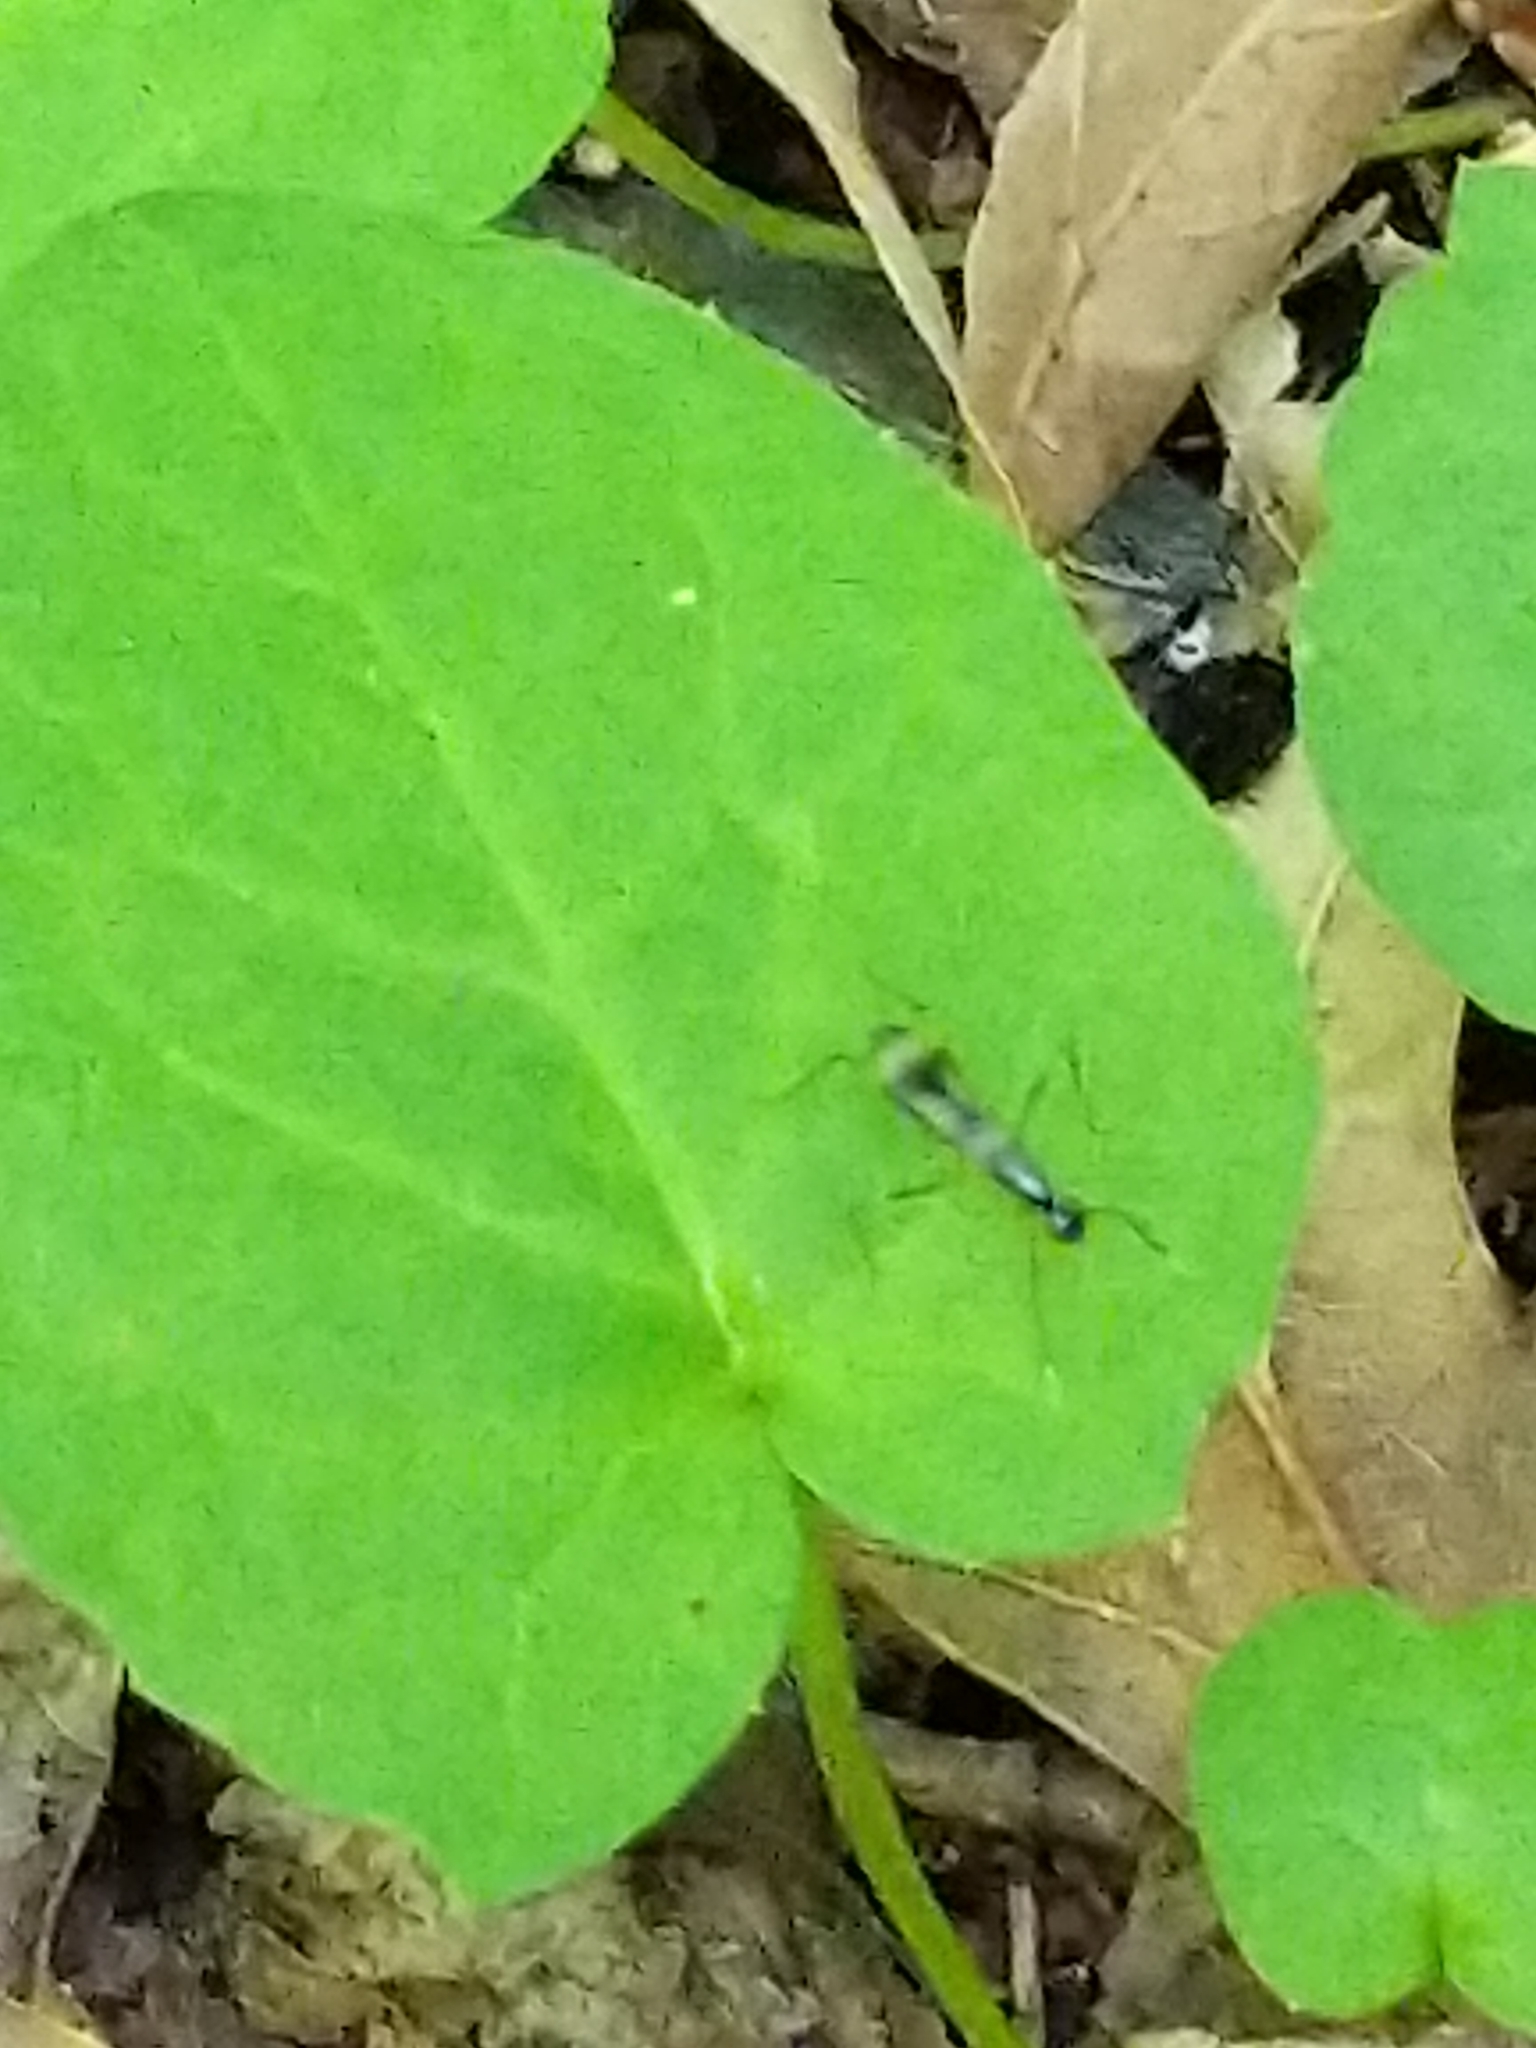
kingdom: Animalia
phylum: Arthropoda
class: Insecta
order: Diptera
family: Micropezidae
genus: Rainieria
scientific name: Rainieria antennaepes
